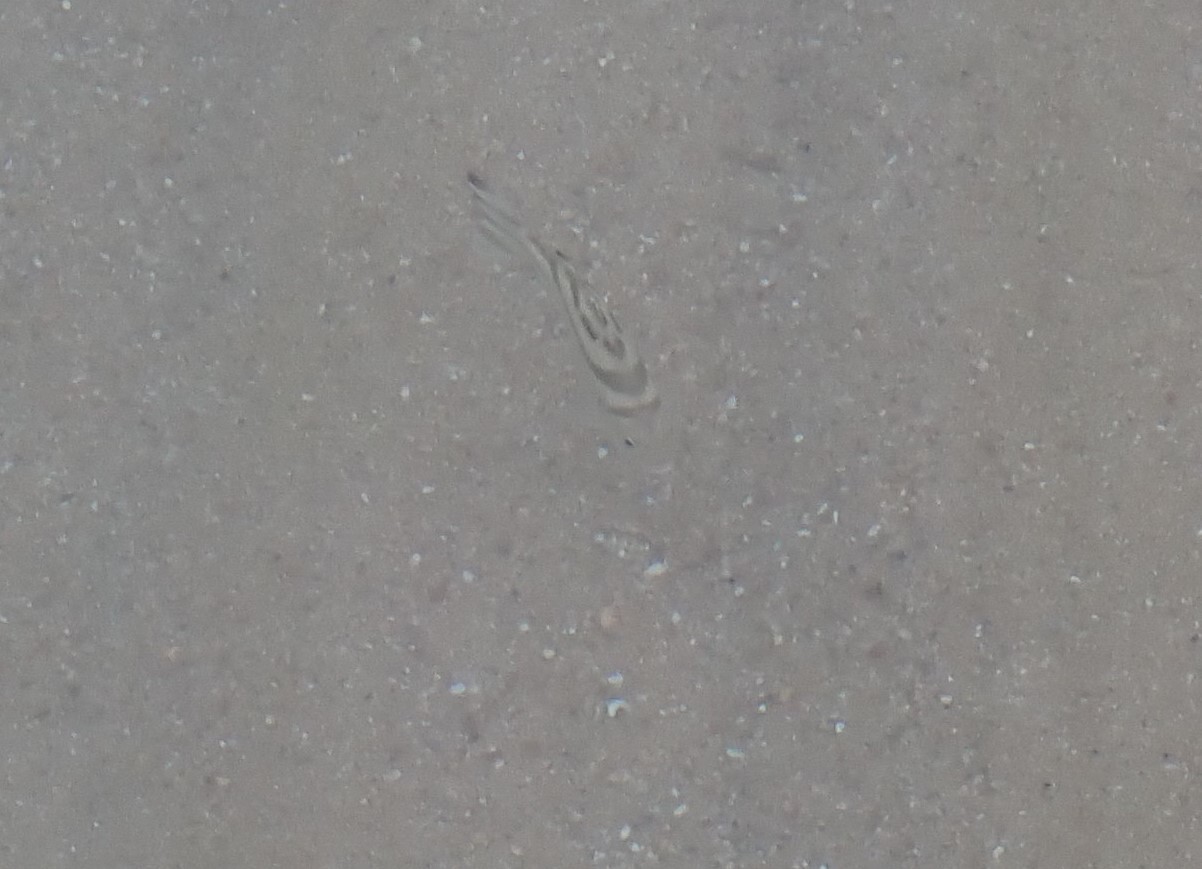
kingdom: Animalia
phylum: Chordata
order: Perciformes
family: Terapontidae
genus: Terapon
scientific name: Terapon jarbua
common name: Jarbua terapon
